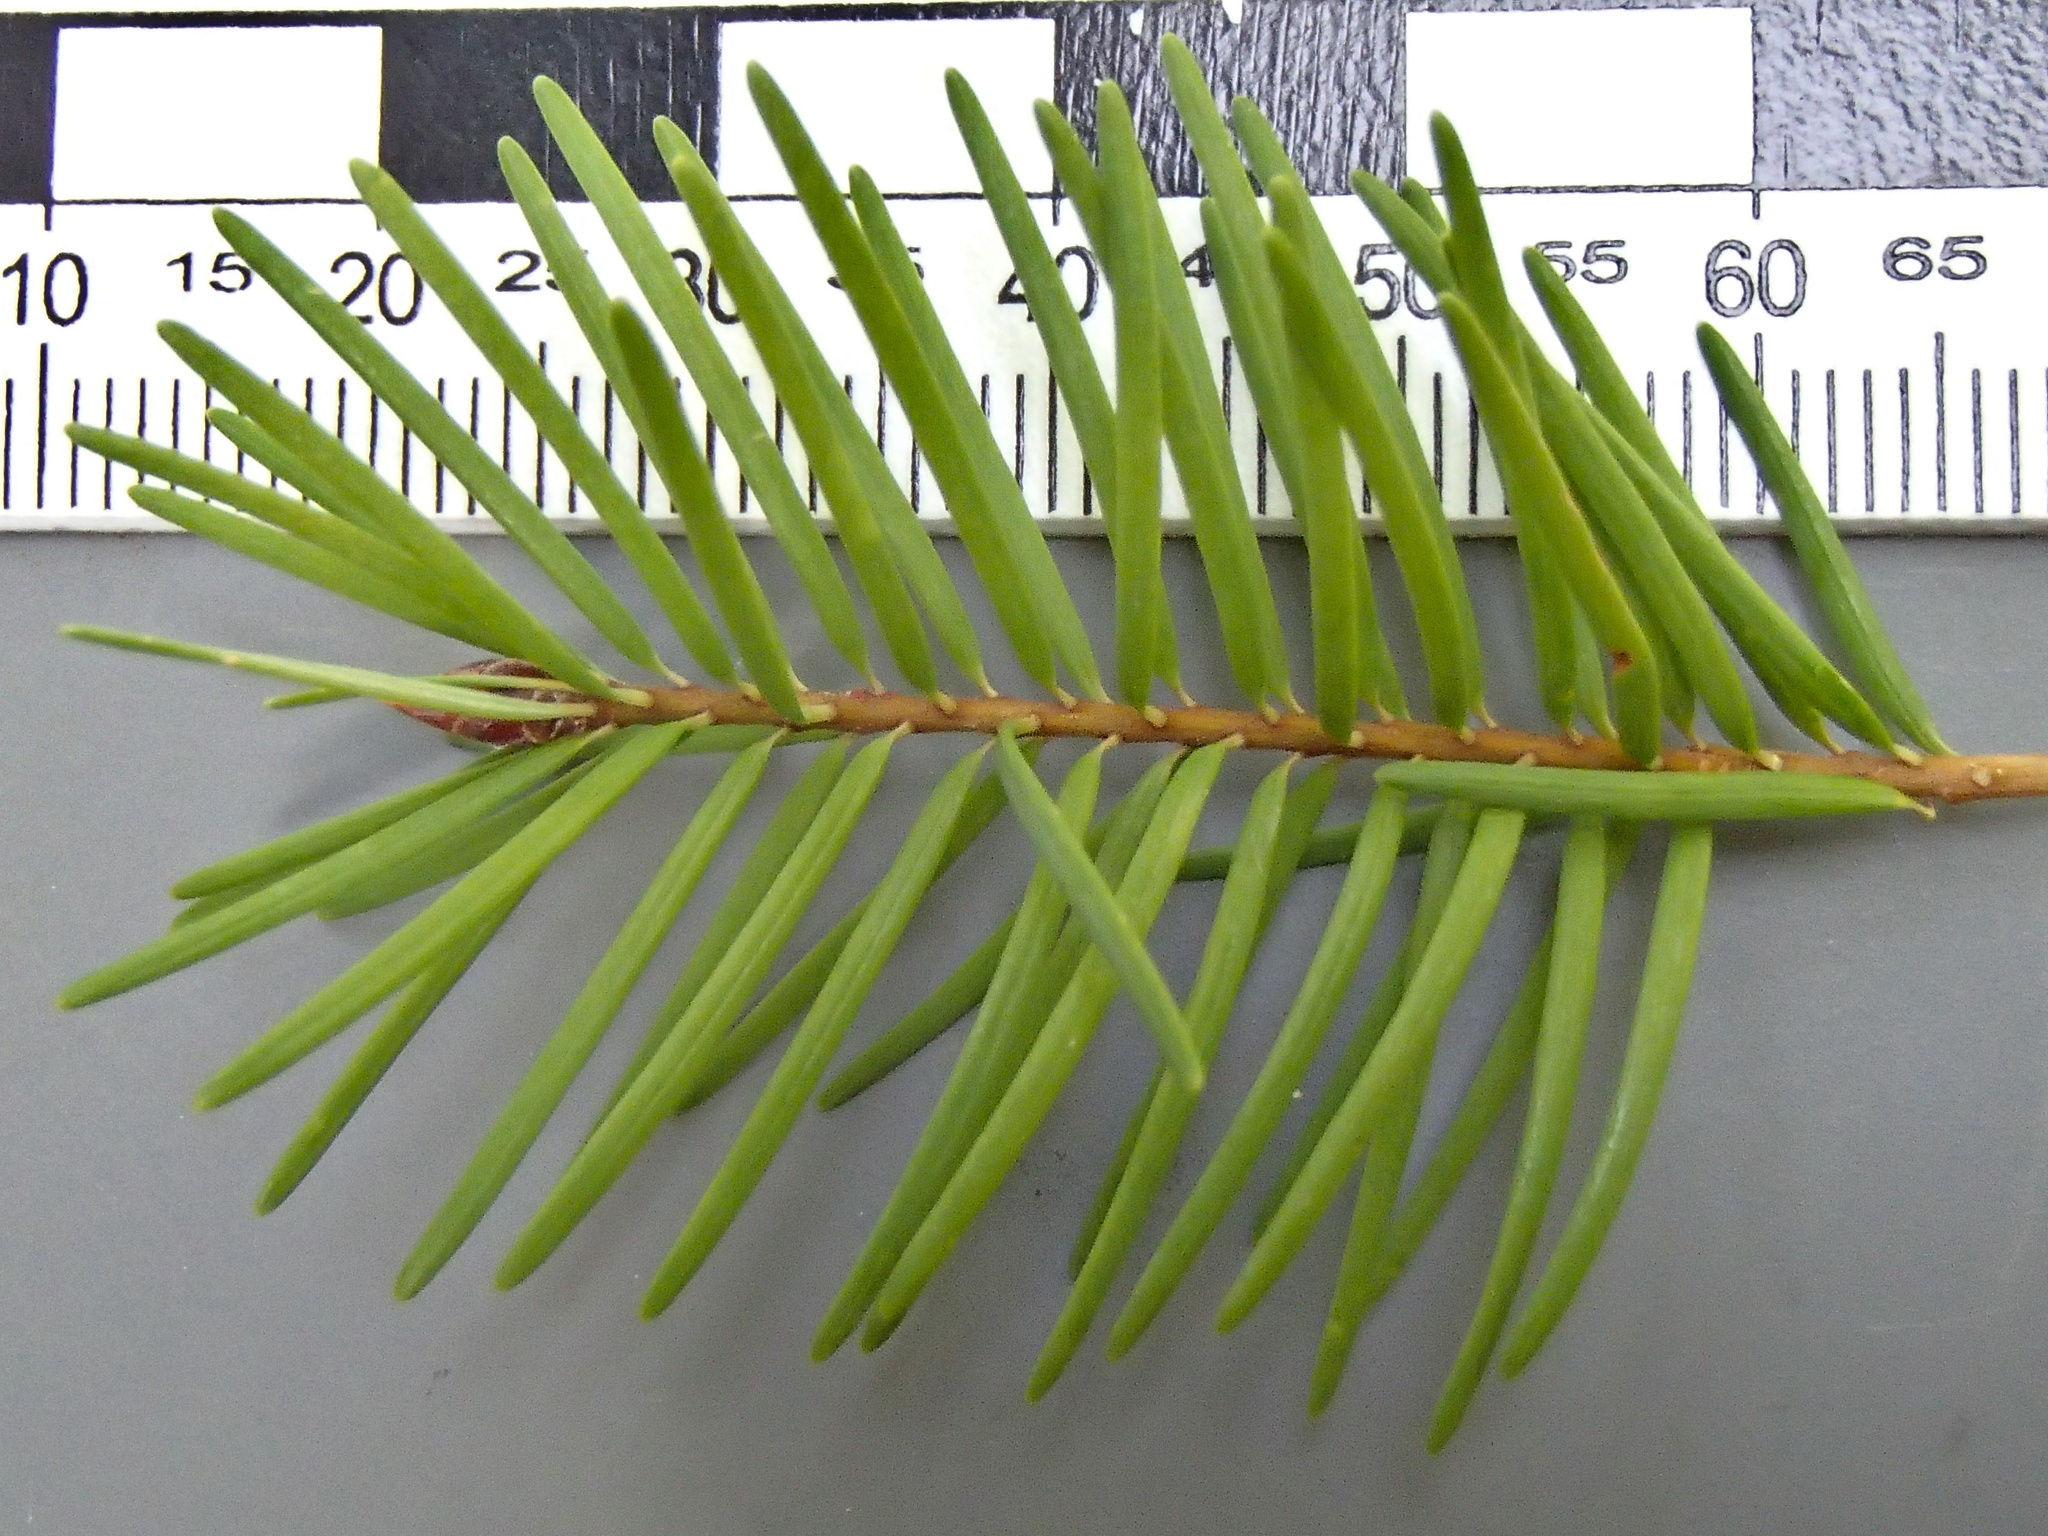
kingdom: Plantae
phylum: Tracheophyta
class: Pinopsida
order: Pinales
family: Pinaceae
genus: Pseudotsuga
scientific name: Pseudotsuga menziesii
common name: Douglas fir
